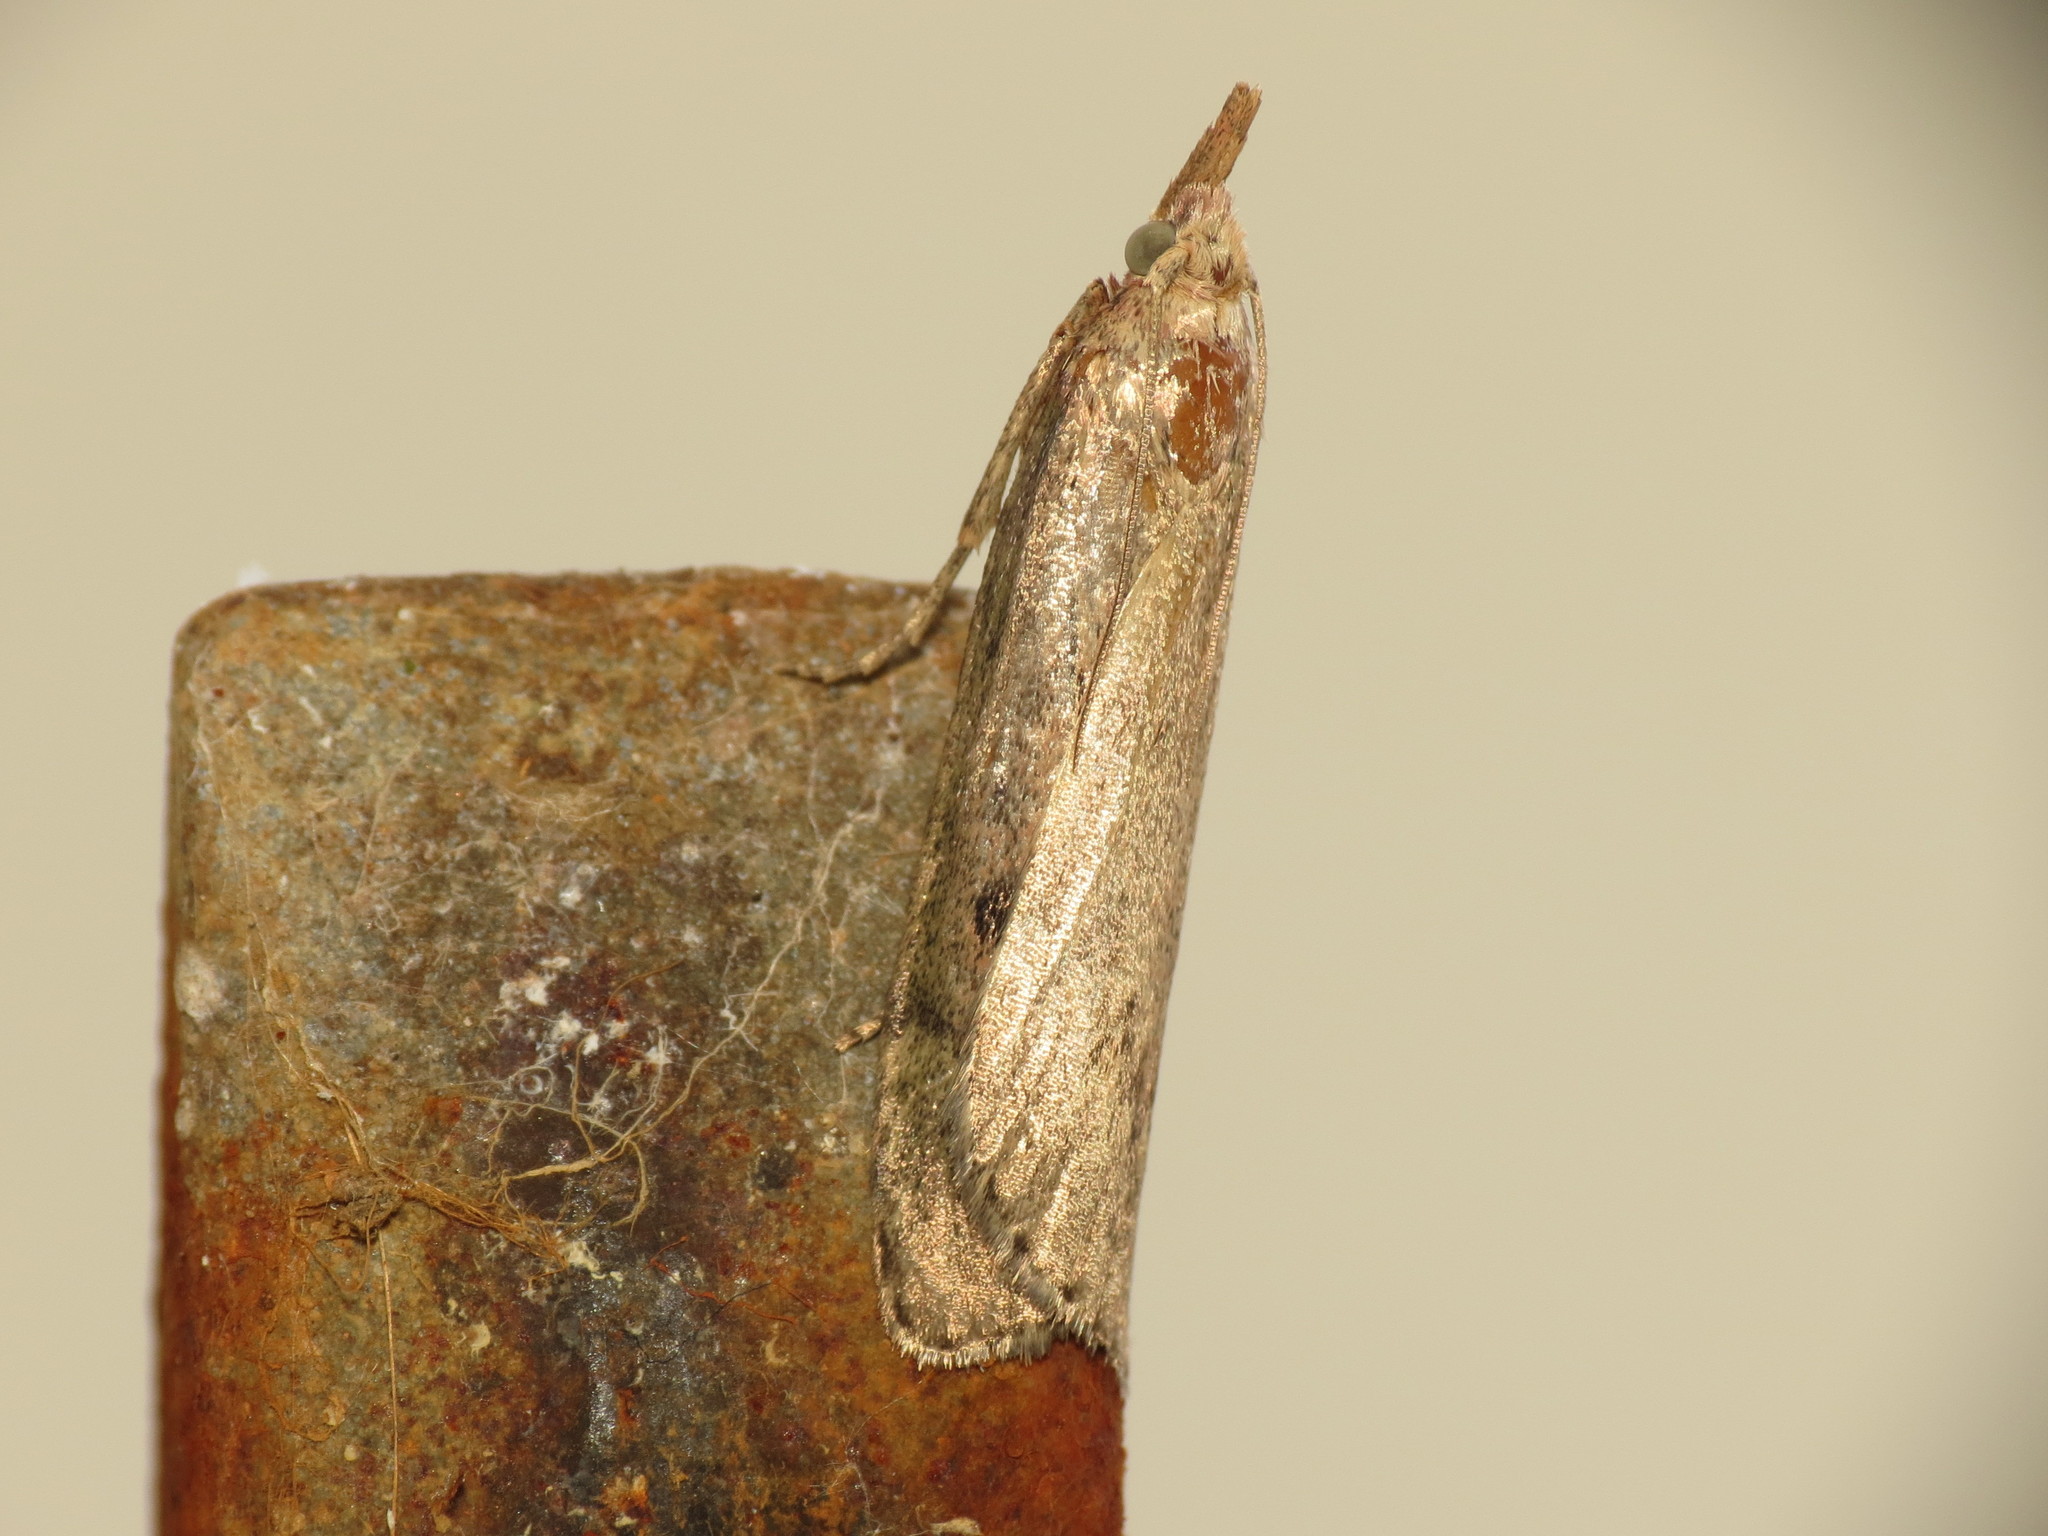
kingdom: Animalia
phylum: Arthropoda
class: Insecta
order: Lepidoptera
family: Pyralidae
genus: Aphomia
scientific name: Aphomia sociella
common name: Bee moth
